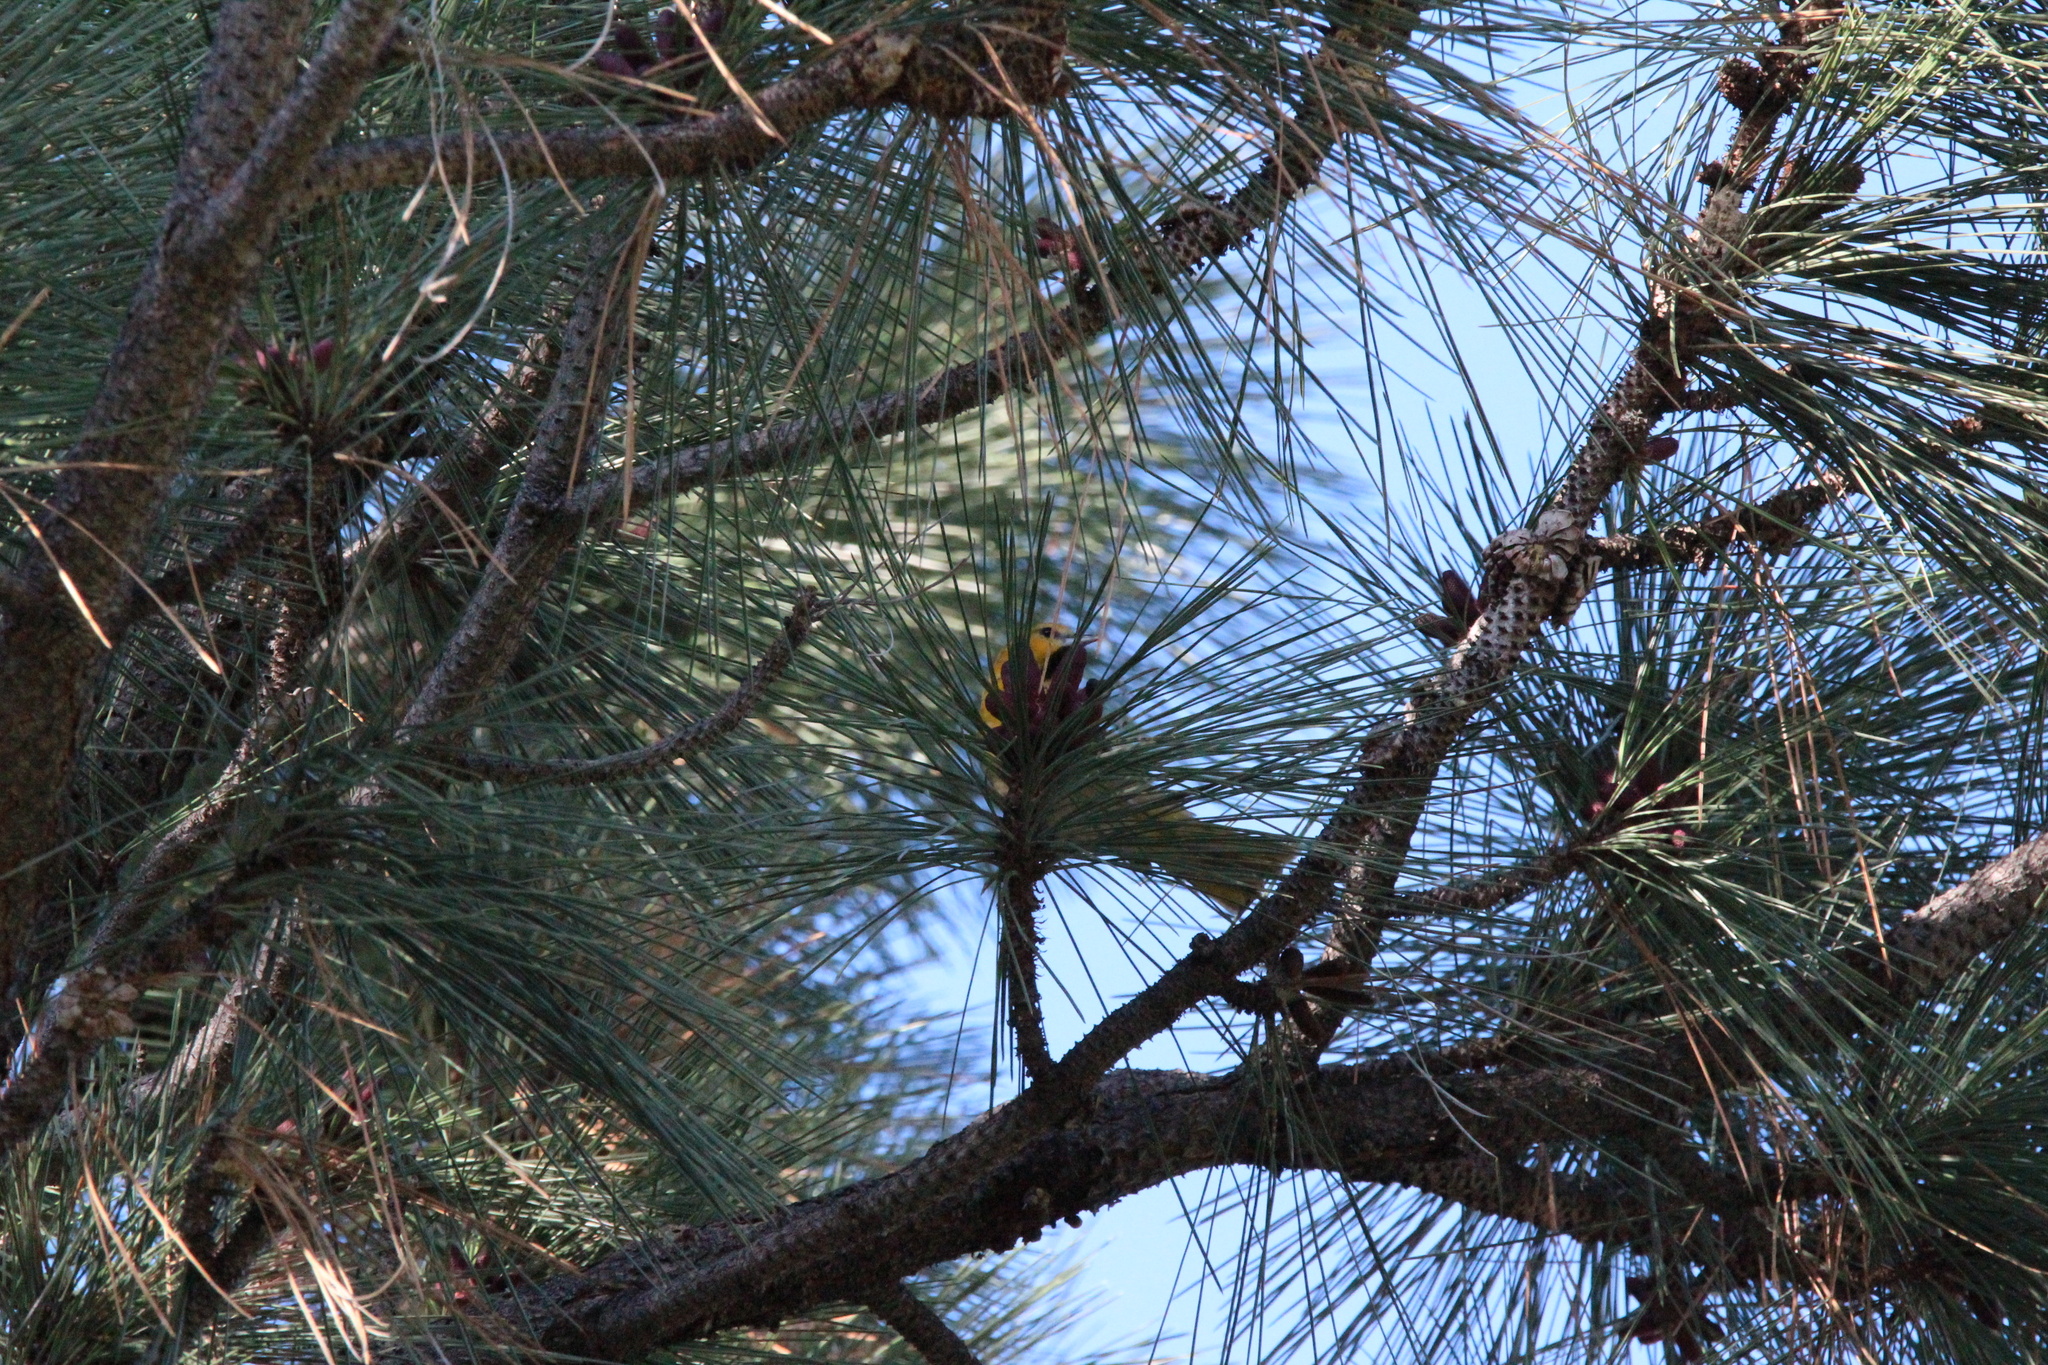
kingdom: Plantae
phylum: Tracheophyta
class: Pinopsida
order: Pinales
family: Pinaceae
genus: Pinus
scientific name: Pinus ponderosa
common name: Western yellow-pine
